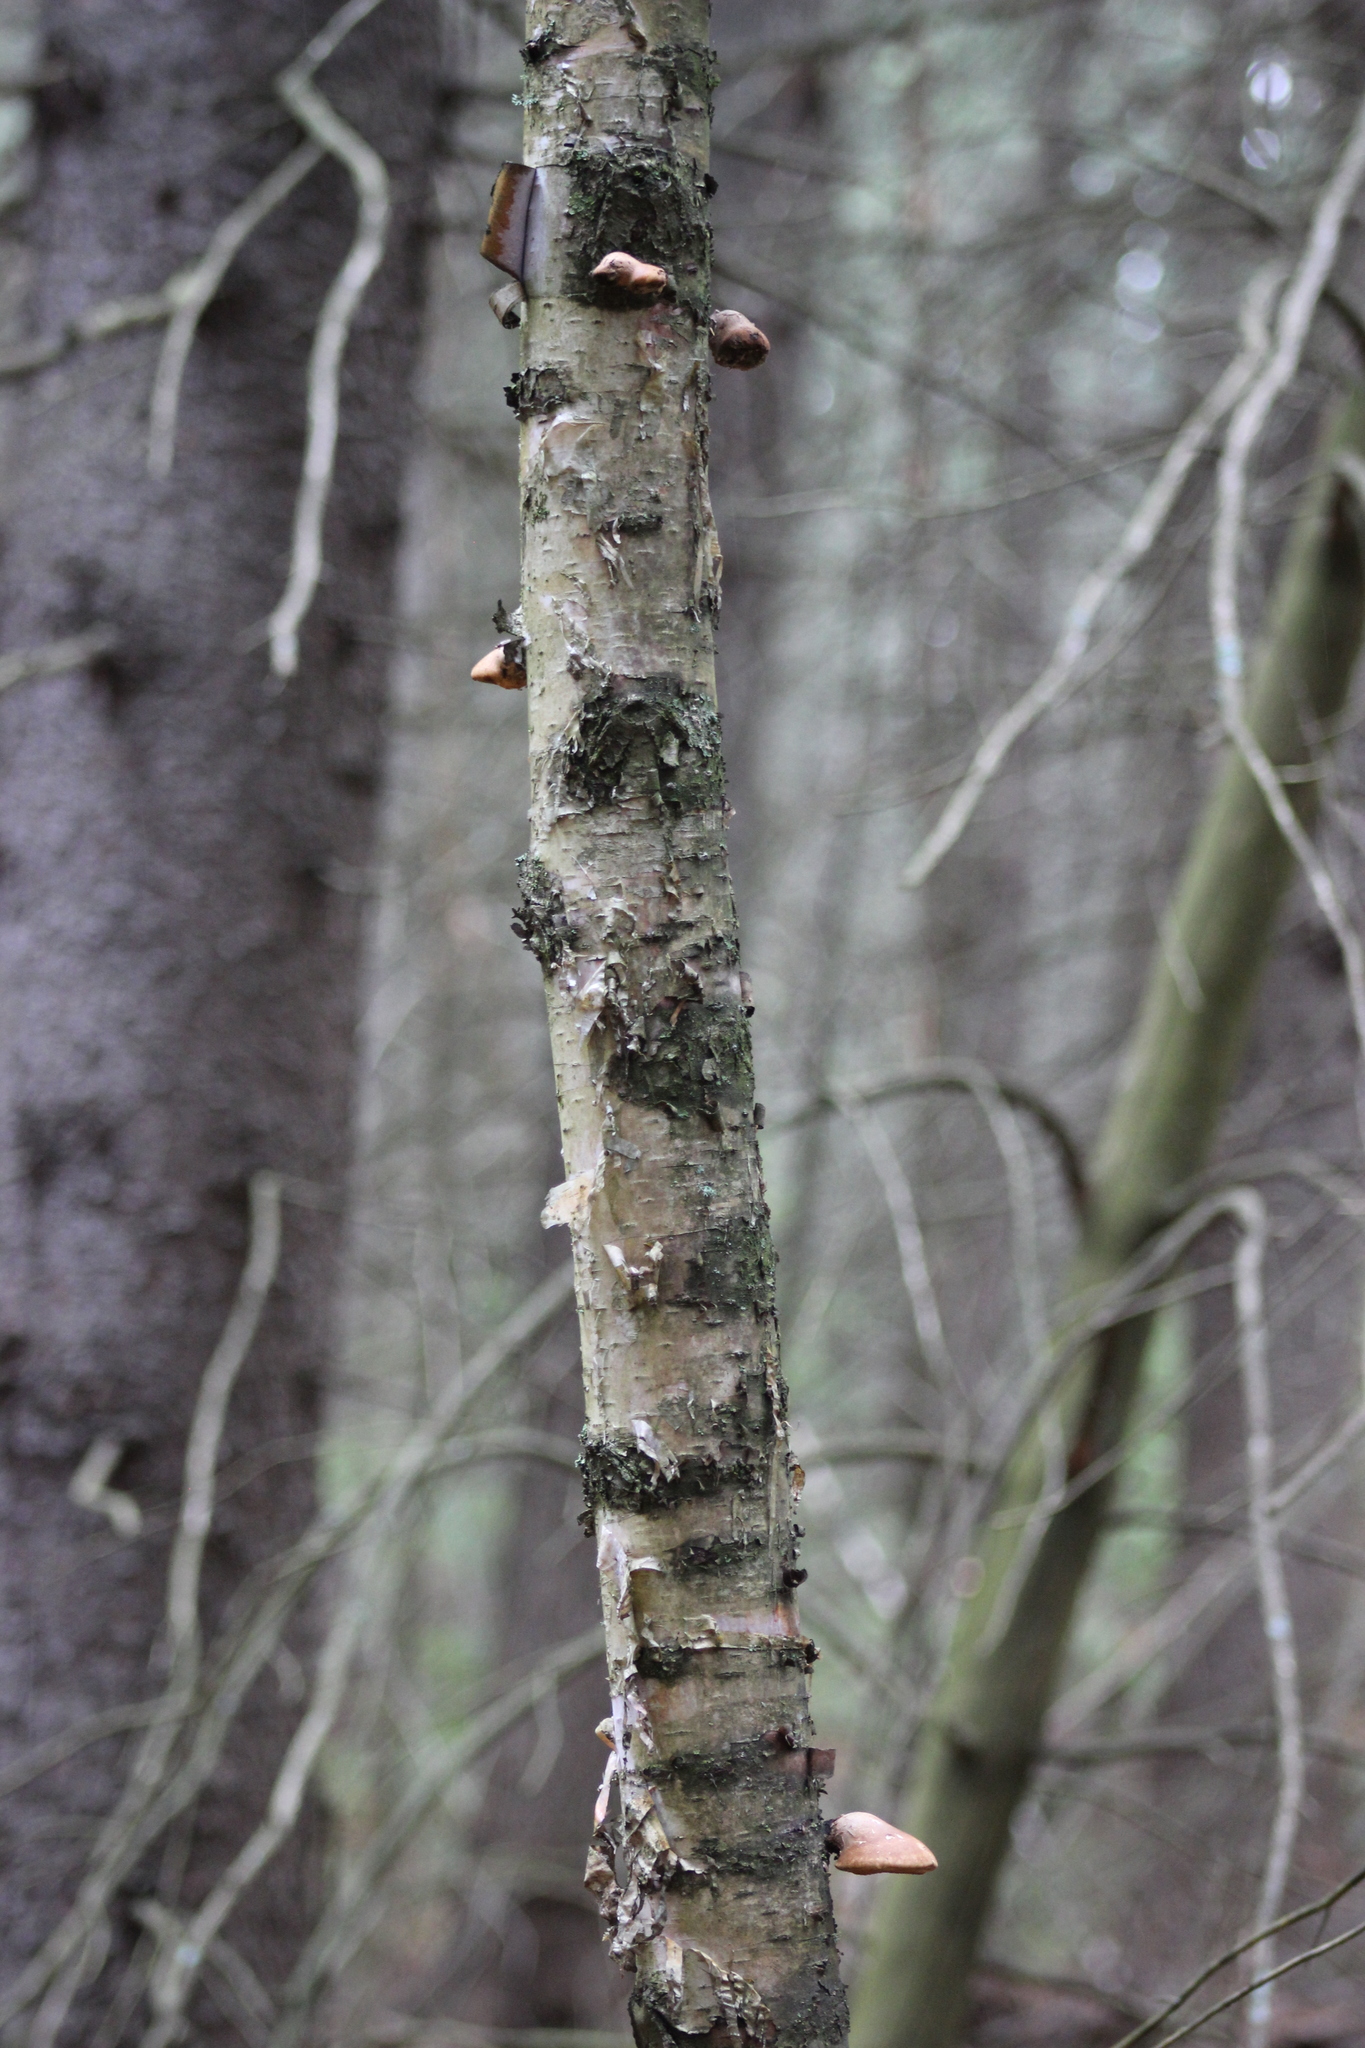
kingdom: Fungi
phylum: Basidiomycota
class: Agaricomycetes
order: Polyporales
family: Fomitopsidaceae
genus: Fomitopsis
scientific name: Fomitopsis betulina
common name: Birch polypore
